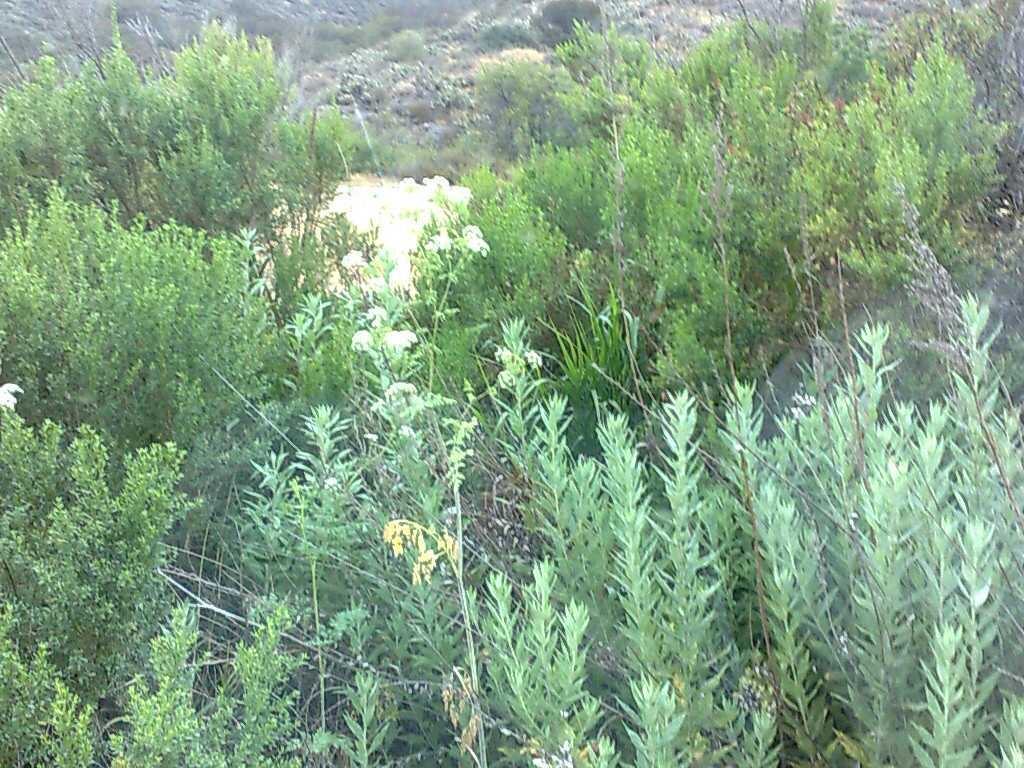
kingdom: Plantae
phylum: Tracheophyta
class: Magnoliopsida
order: Asterales
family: Asteraceae
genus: Baccharis
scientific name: Baccharis pilularis
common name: Coyotebrush
